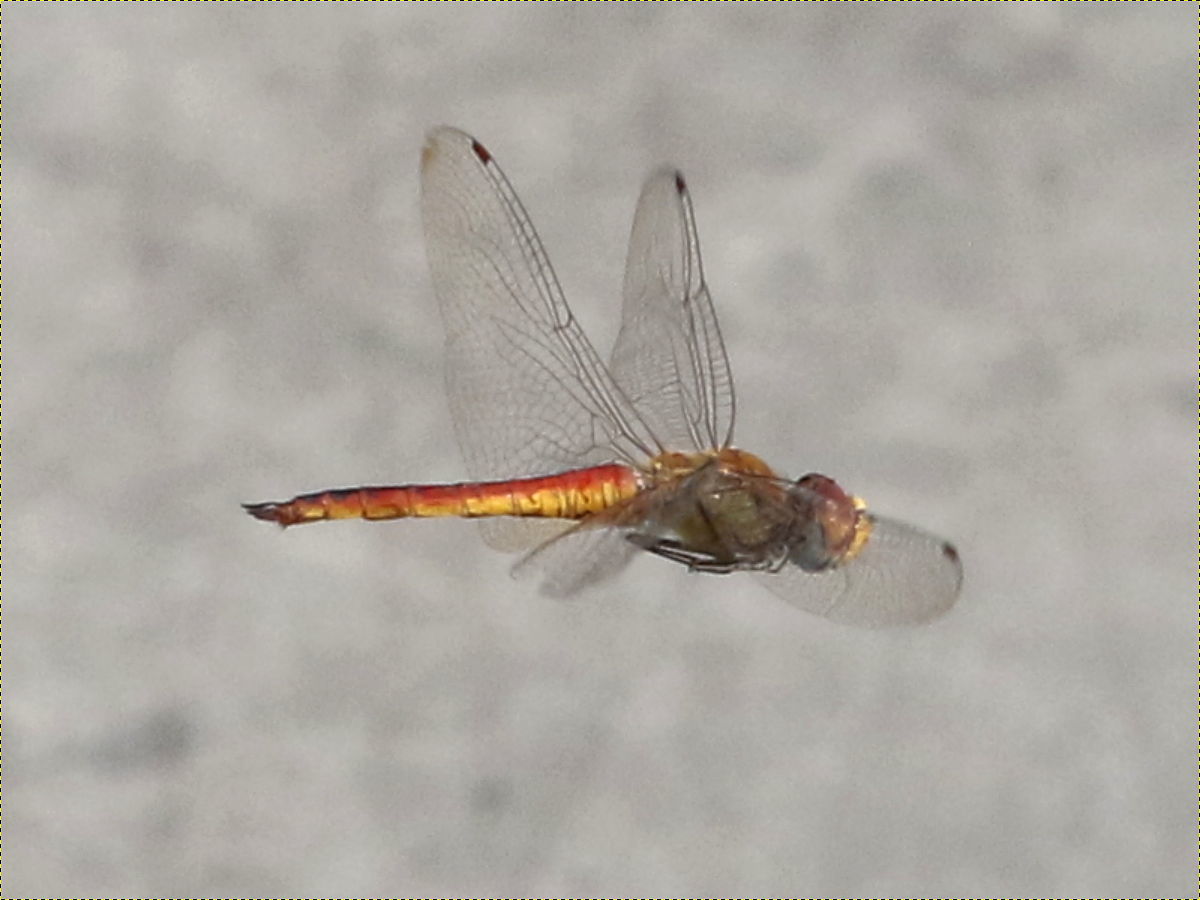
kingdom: Animalia
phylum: Arthropoda
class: Insecta
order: Odonata
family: Libellulidae
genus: Pantala
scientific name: Pantala flavescens
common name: Wandering glider
